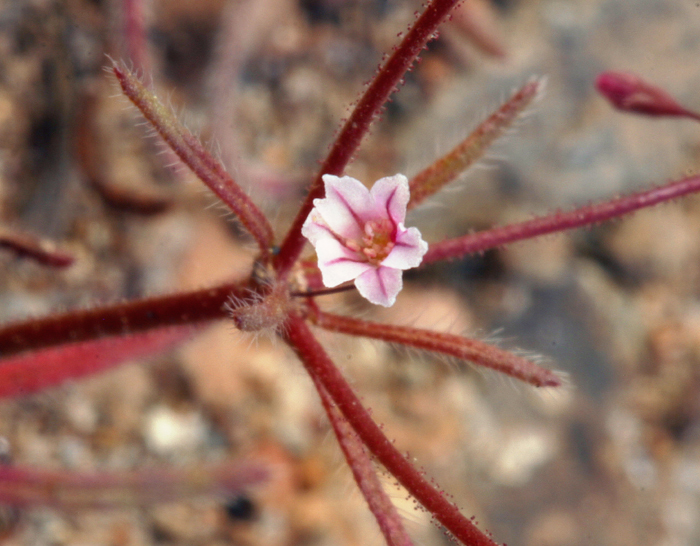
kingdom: Plantae
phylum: Tracheophyta
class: Magnoliopsida
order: Caryophyllales
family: Polygonaceae
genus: Eriogonum
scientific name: Eriogonum spergulinum
